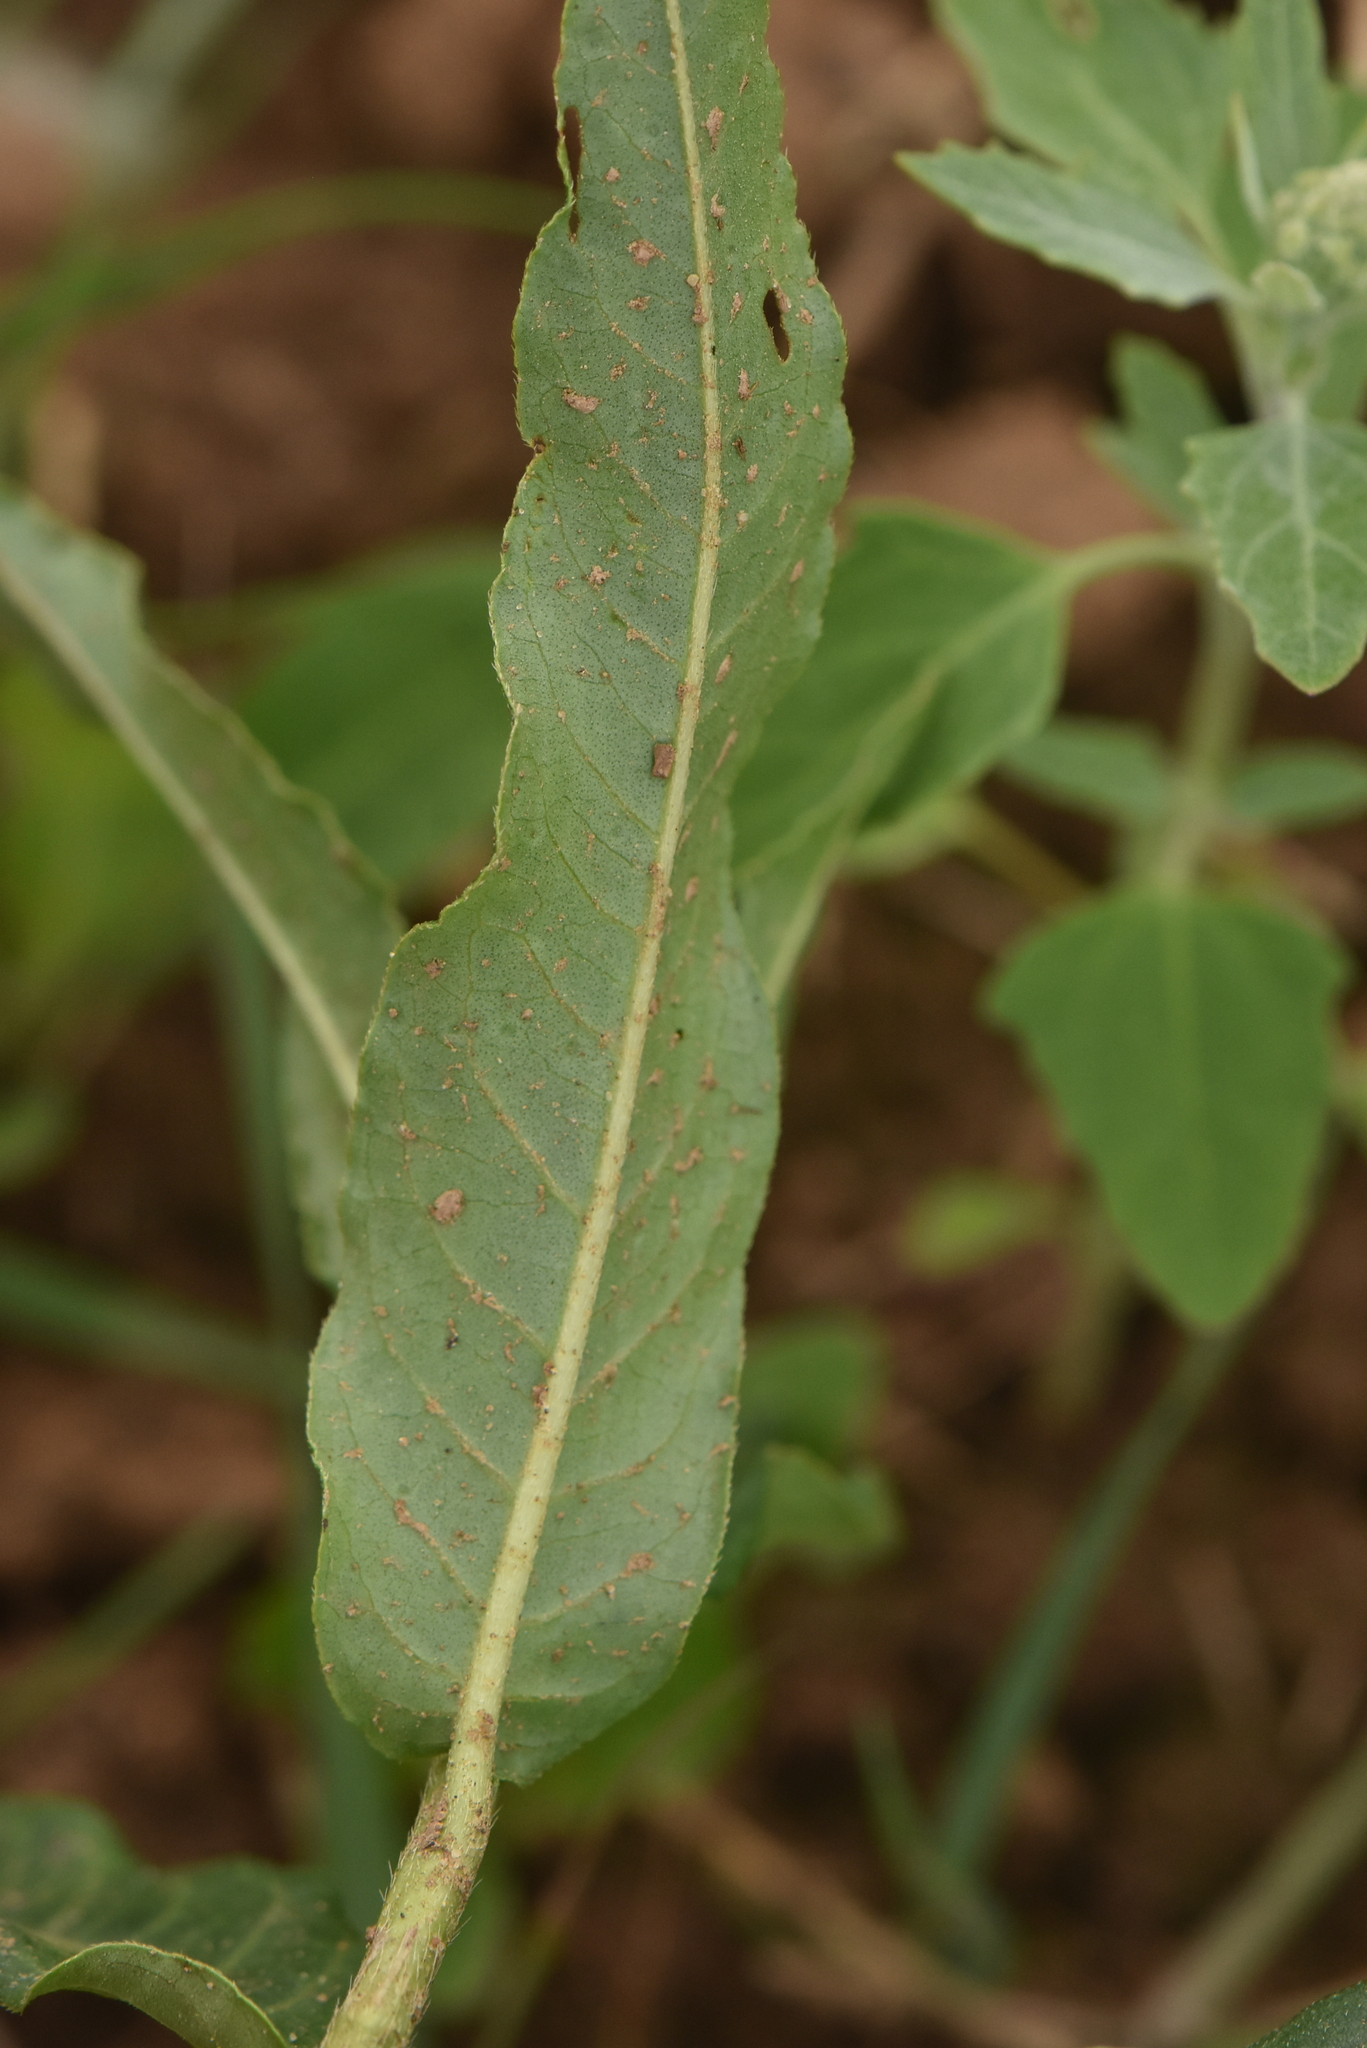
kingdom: Plantae
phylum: Tracheophyta
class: Magnoliopsida
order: Caryophyllales
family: Polygonaceae
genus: Persicaria
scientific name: Persicaria amphibia
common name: Amphibious bistort
